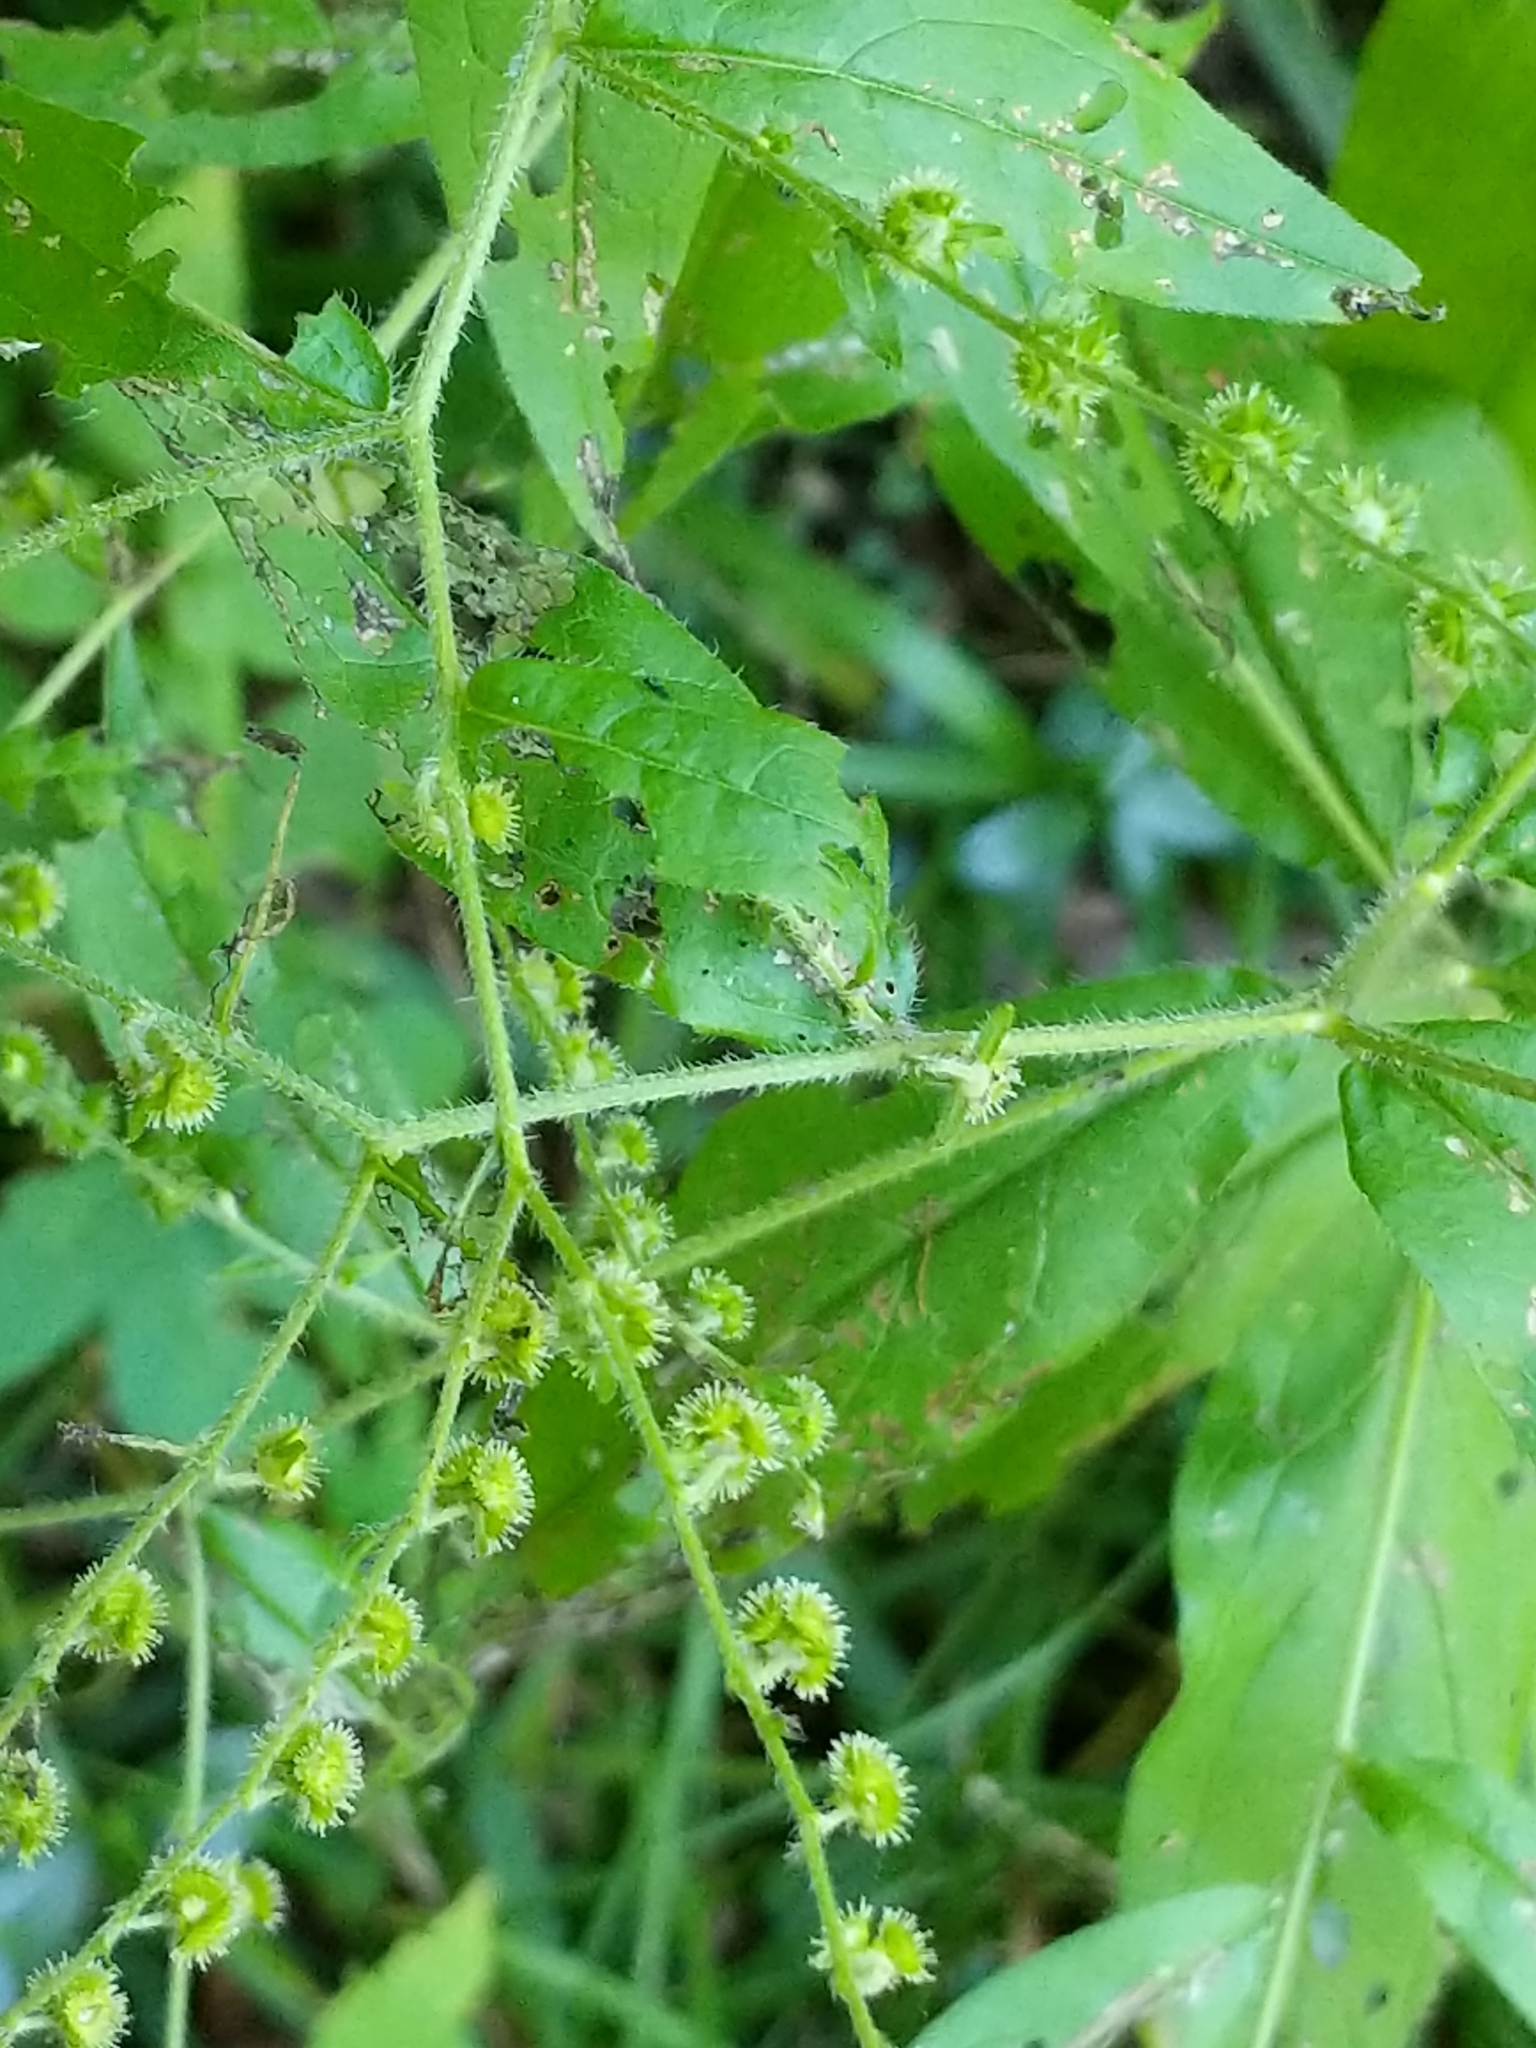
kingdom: Plantae
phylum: Tracheophyta
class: Magnoliopsida
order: Boraginales
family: Boraginaceae
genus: Hackelia
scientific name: Hackelia virginiana
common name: Beggar's-lice
